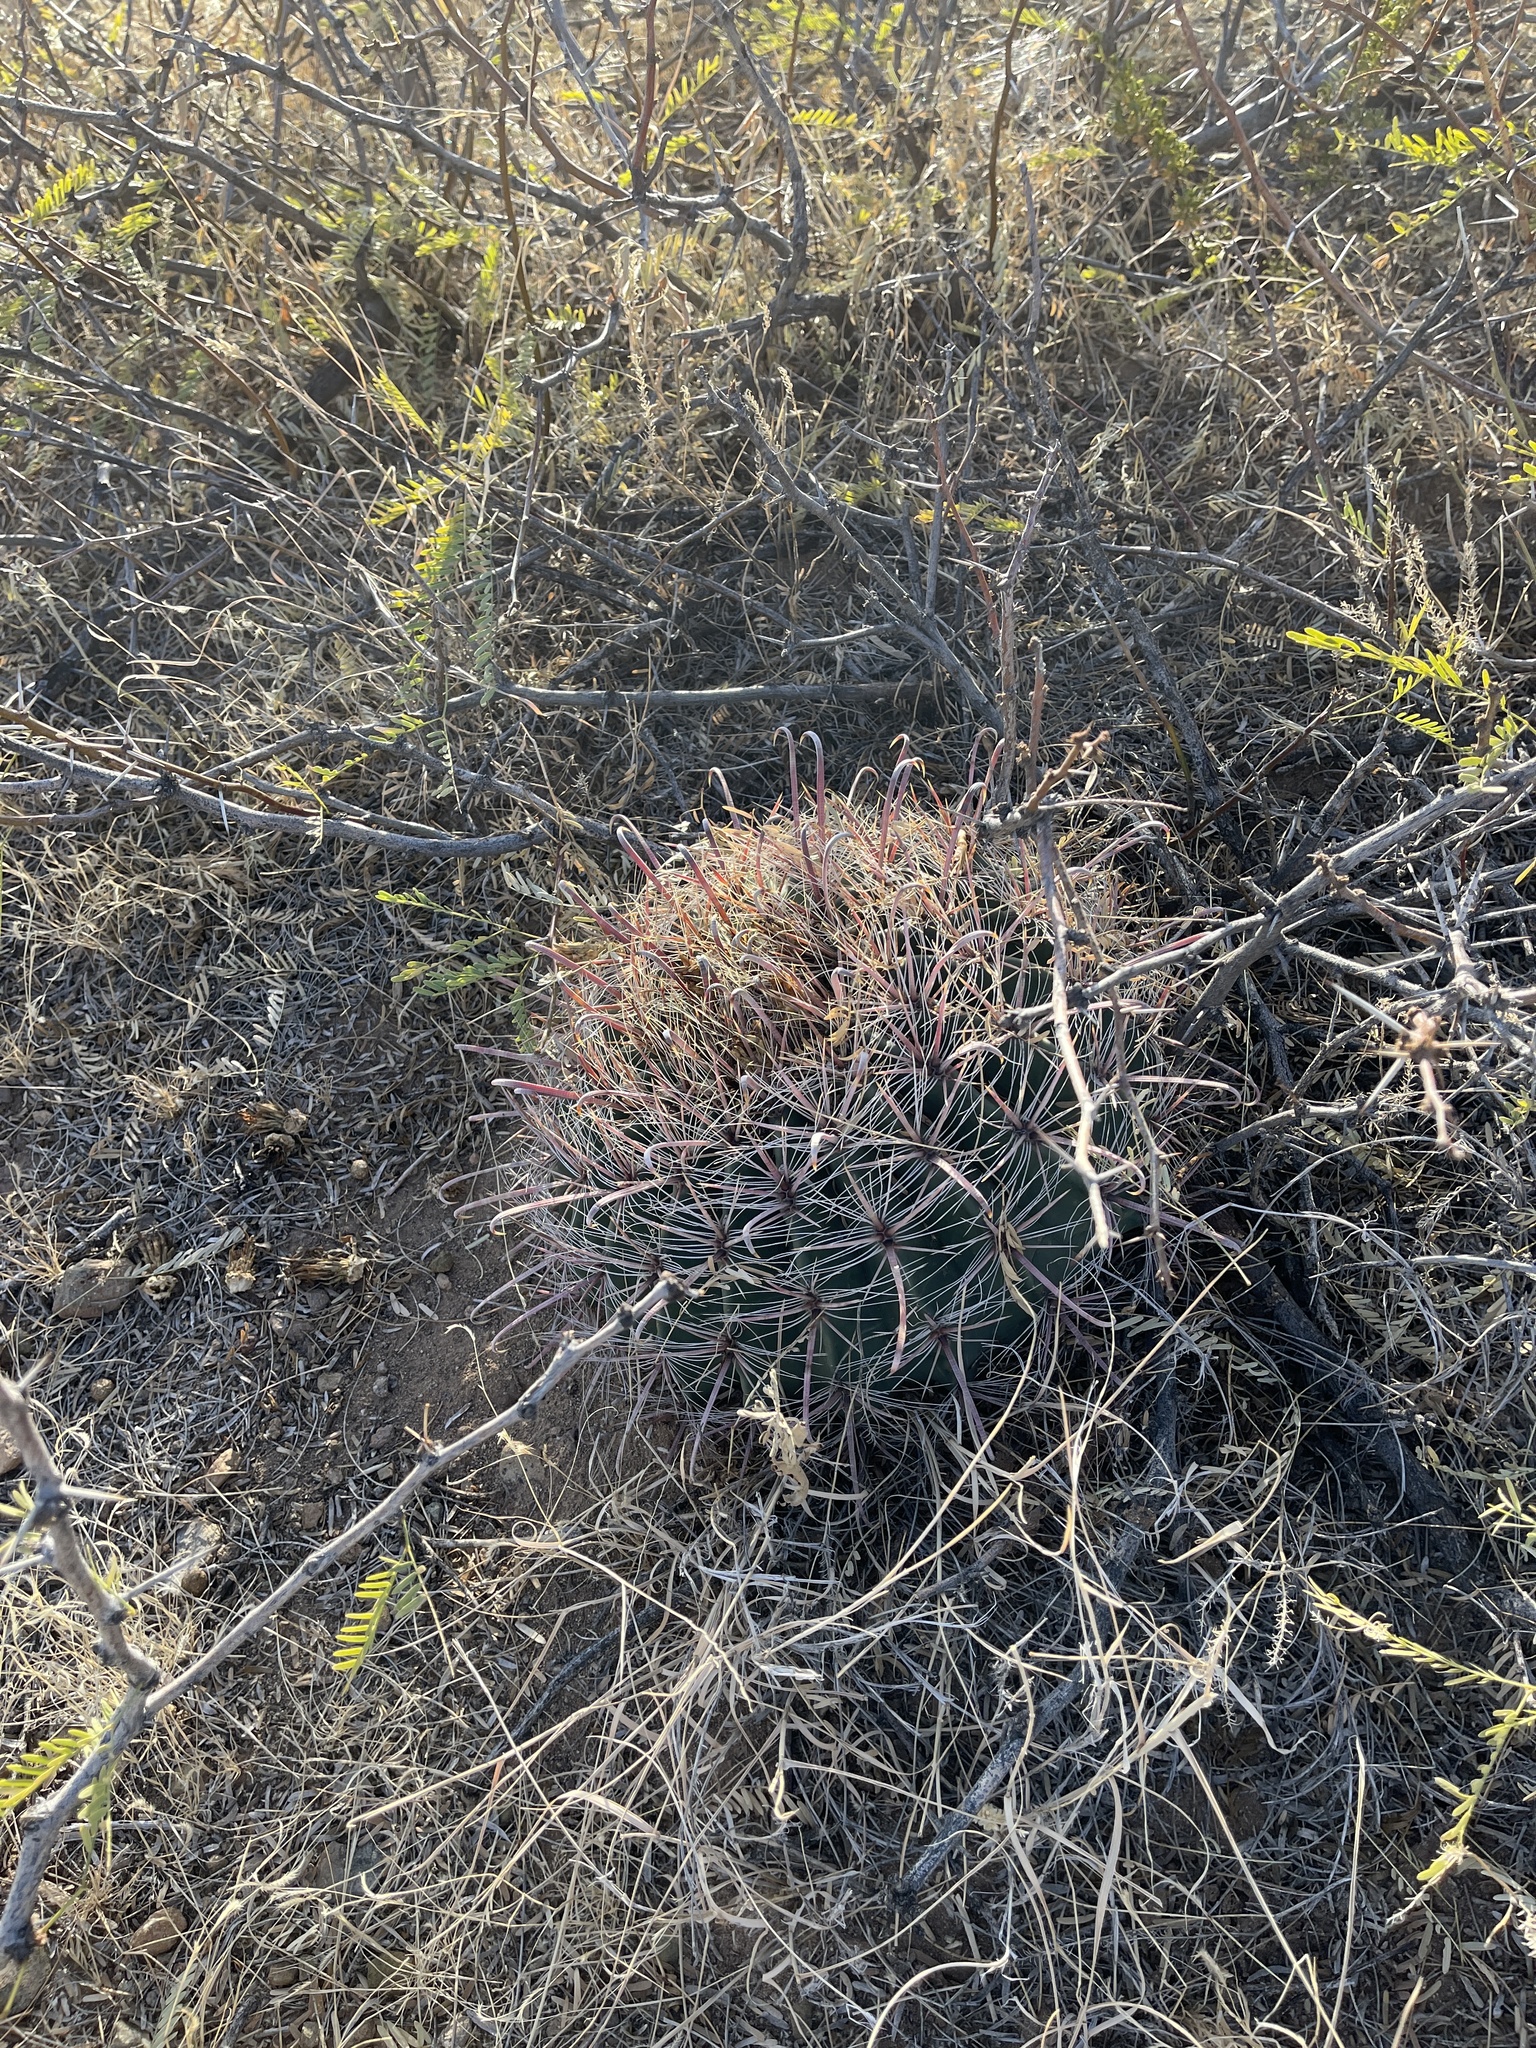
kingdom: Plantae
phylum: Tracheophyta
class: Magnoliopsida
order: Caryophyllales
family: Cactaceae
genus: Ferocactus
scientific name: Ferocactus wislizeni
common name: Candy barrel cactus
